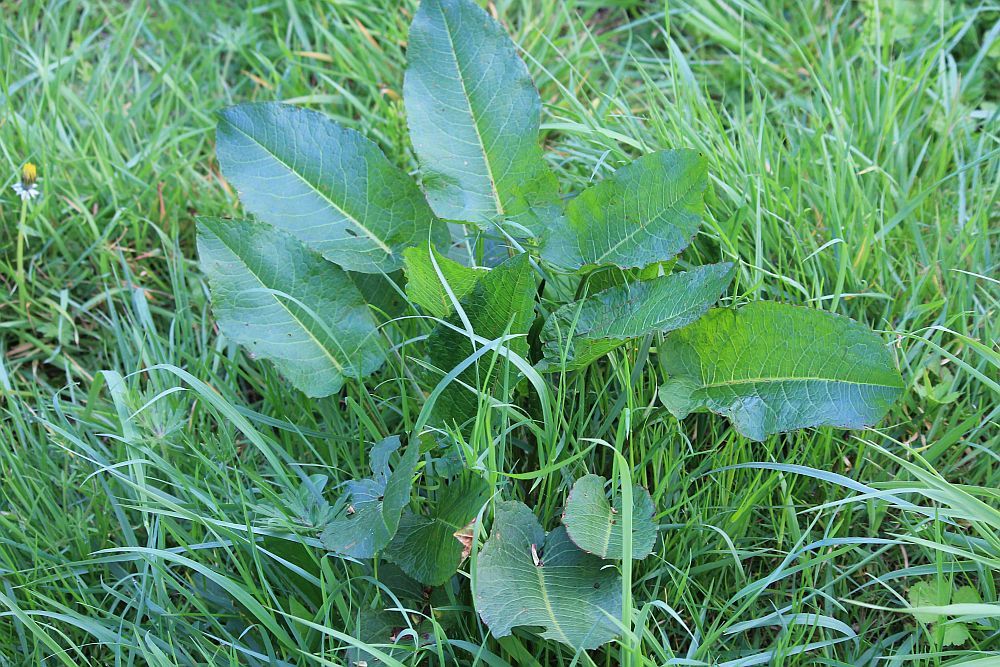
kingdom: Plantae
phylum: Tracheophyta
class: Magnoliopsida
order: Caryophyllales
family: Polygonaceae
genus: Rumex
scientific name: Rumex obtusifolius
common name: Bitter dock
